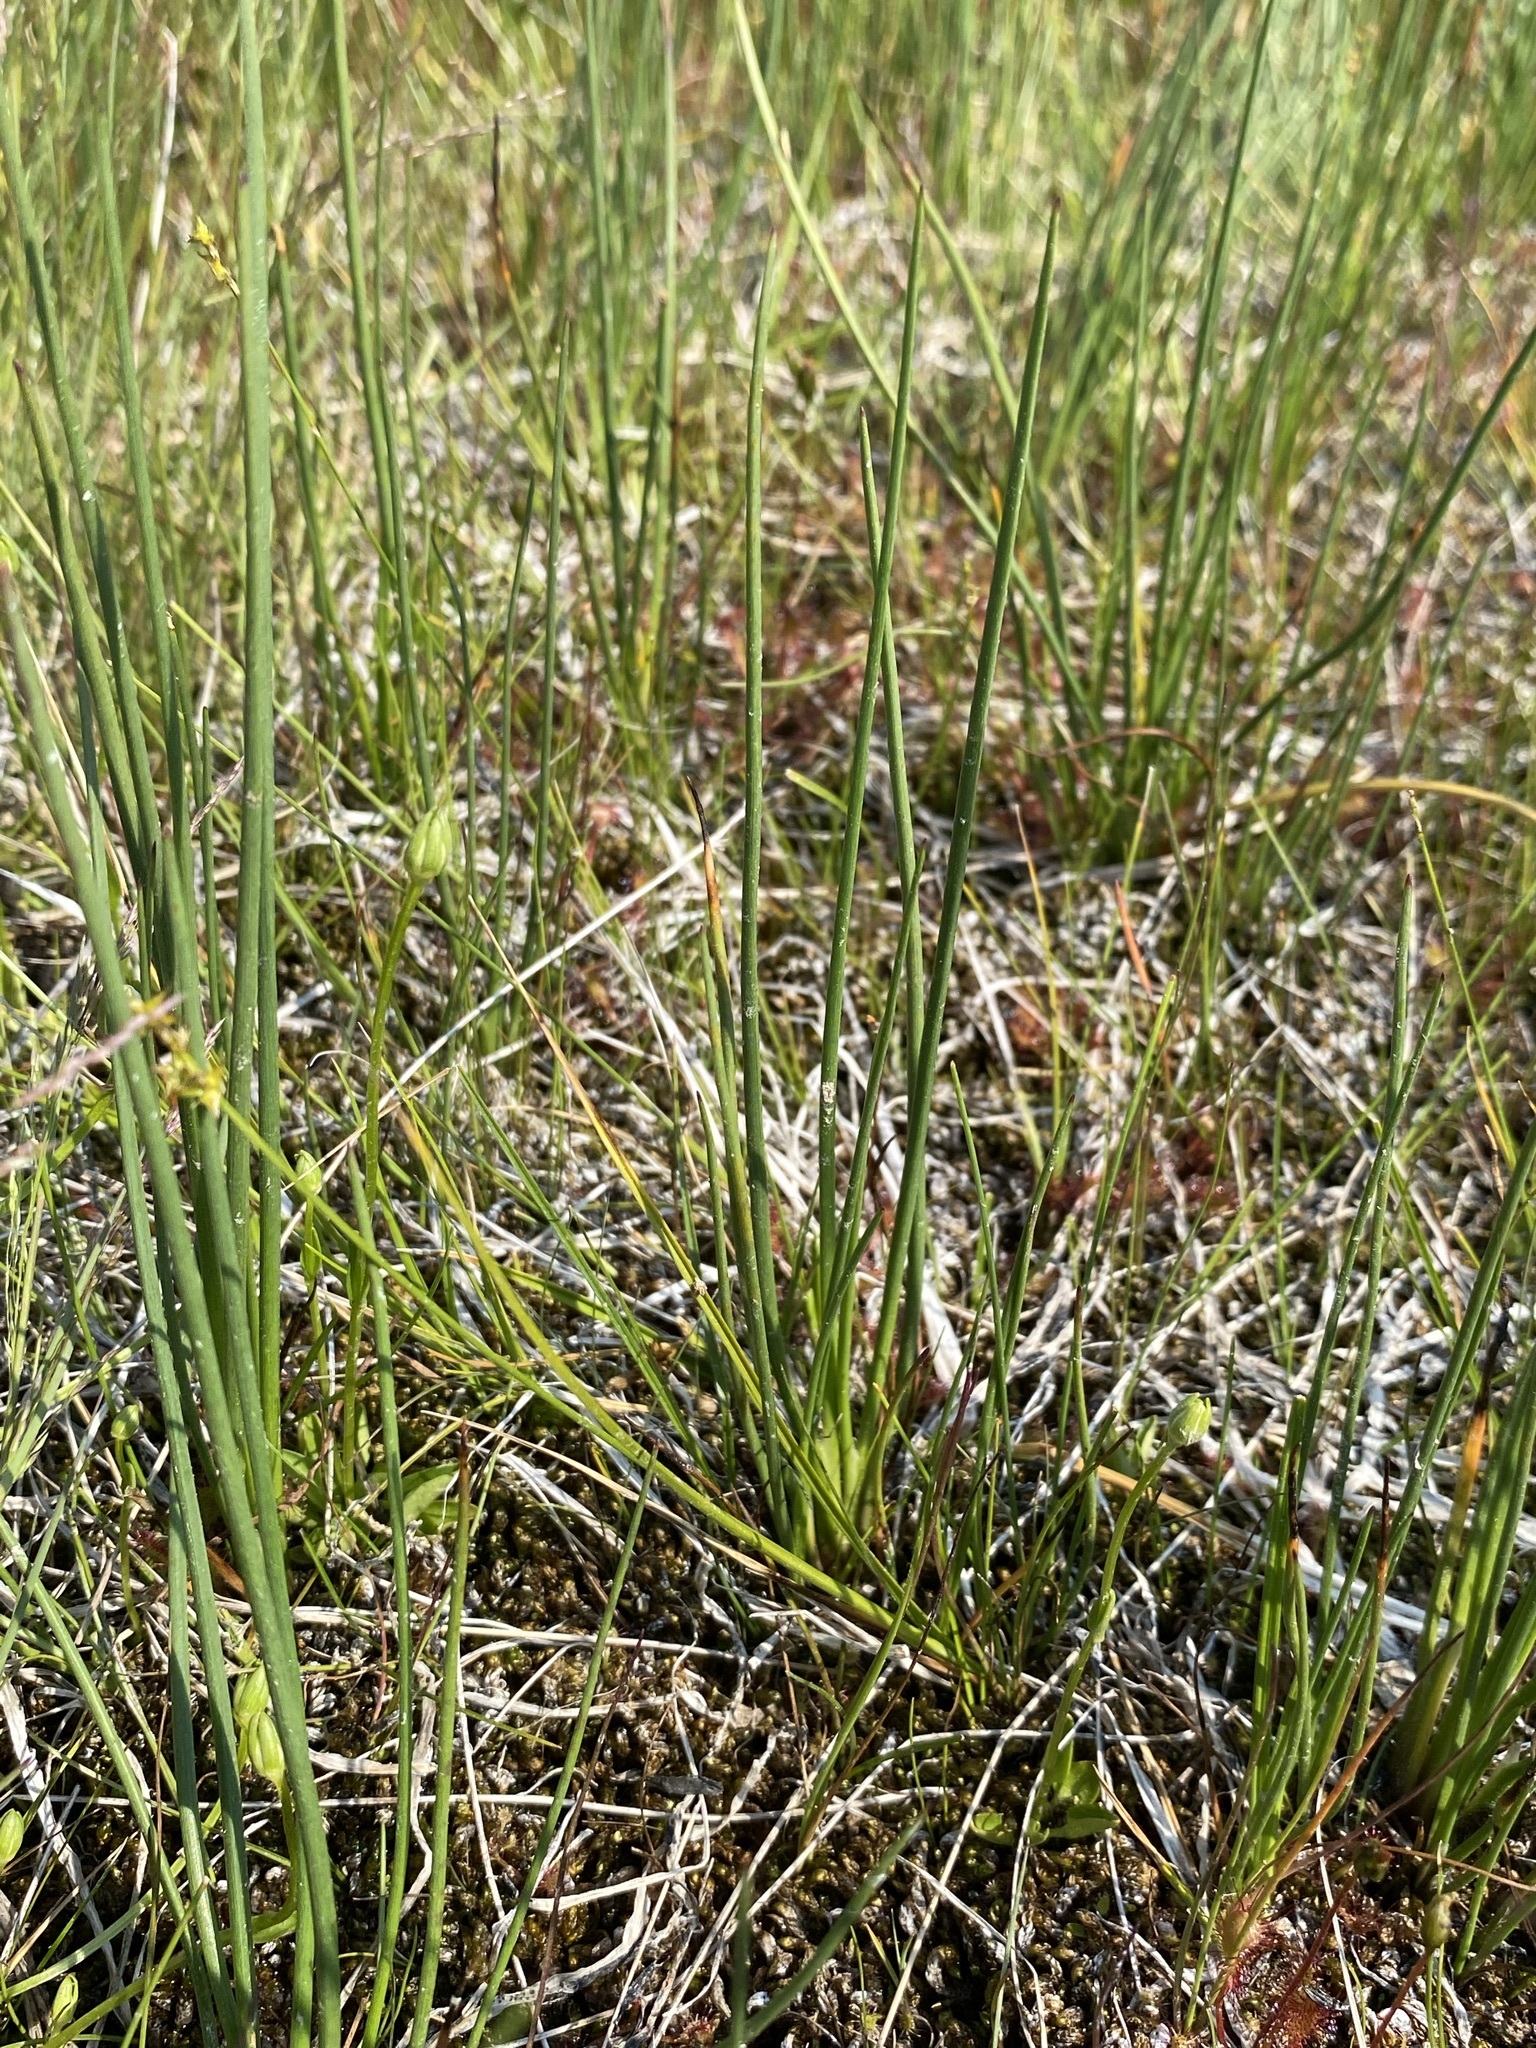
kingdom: Plantae
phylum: Tracheophyta
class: Liliopsida
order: Poales
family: Cyperaceae
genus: Carex
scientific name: Carex echinata
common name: Star sedge
